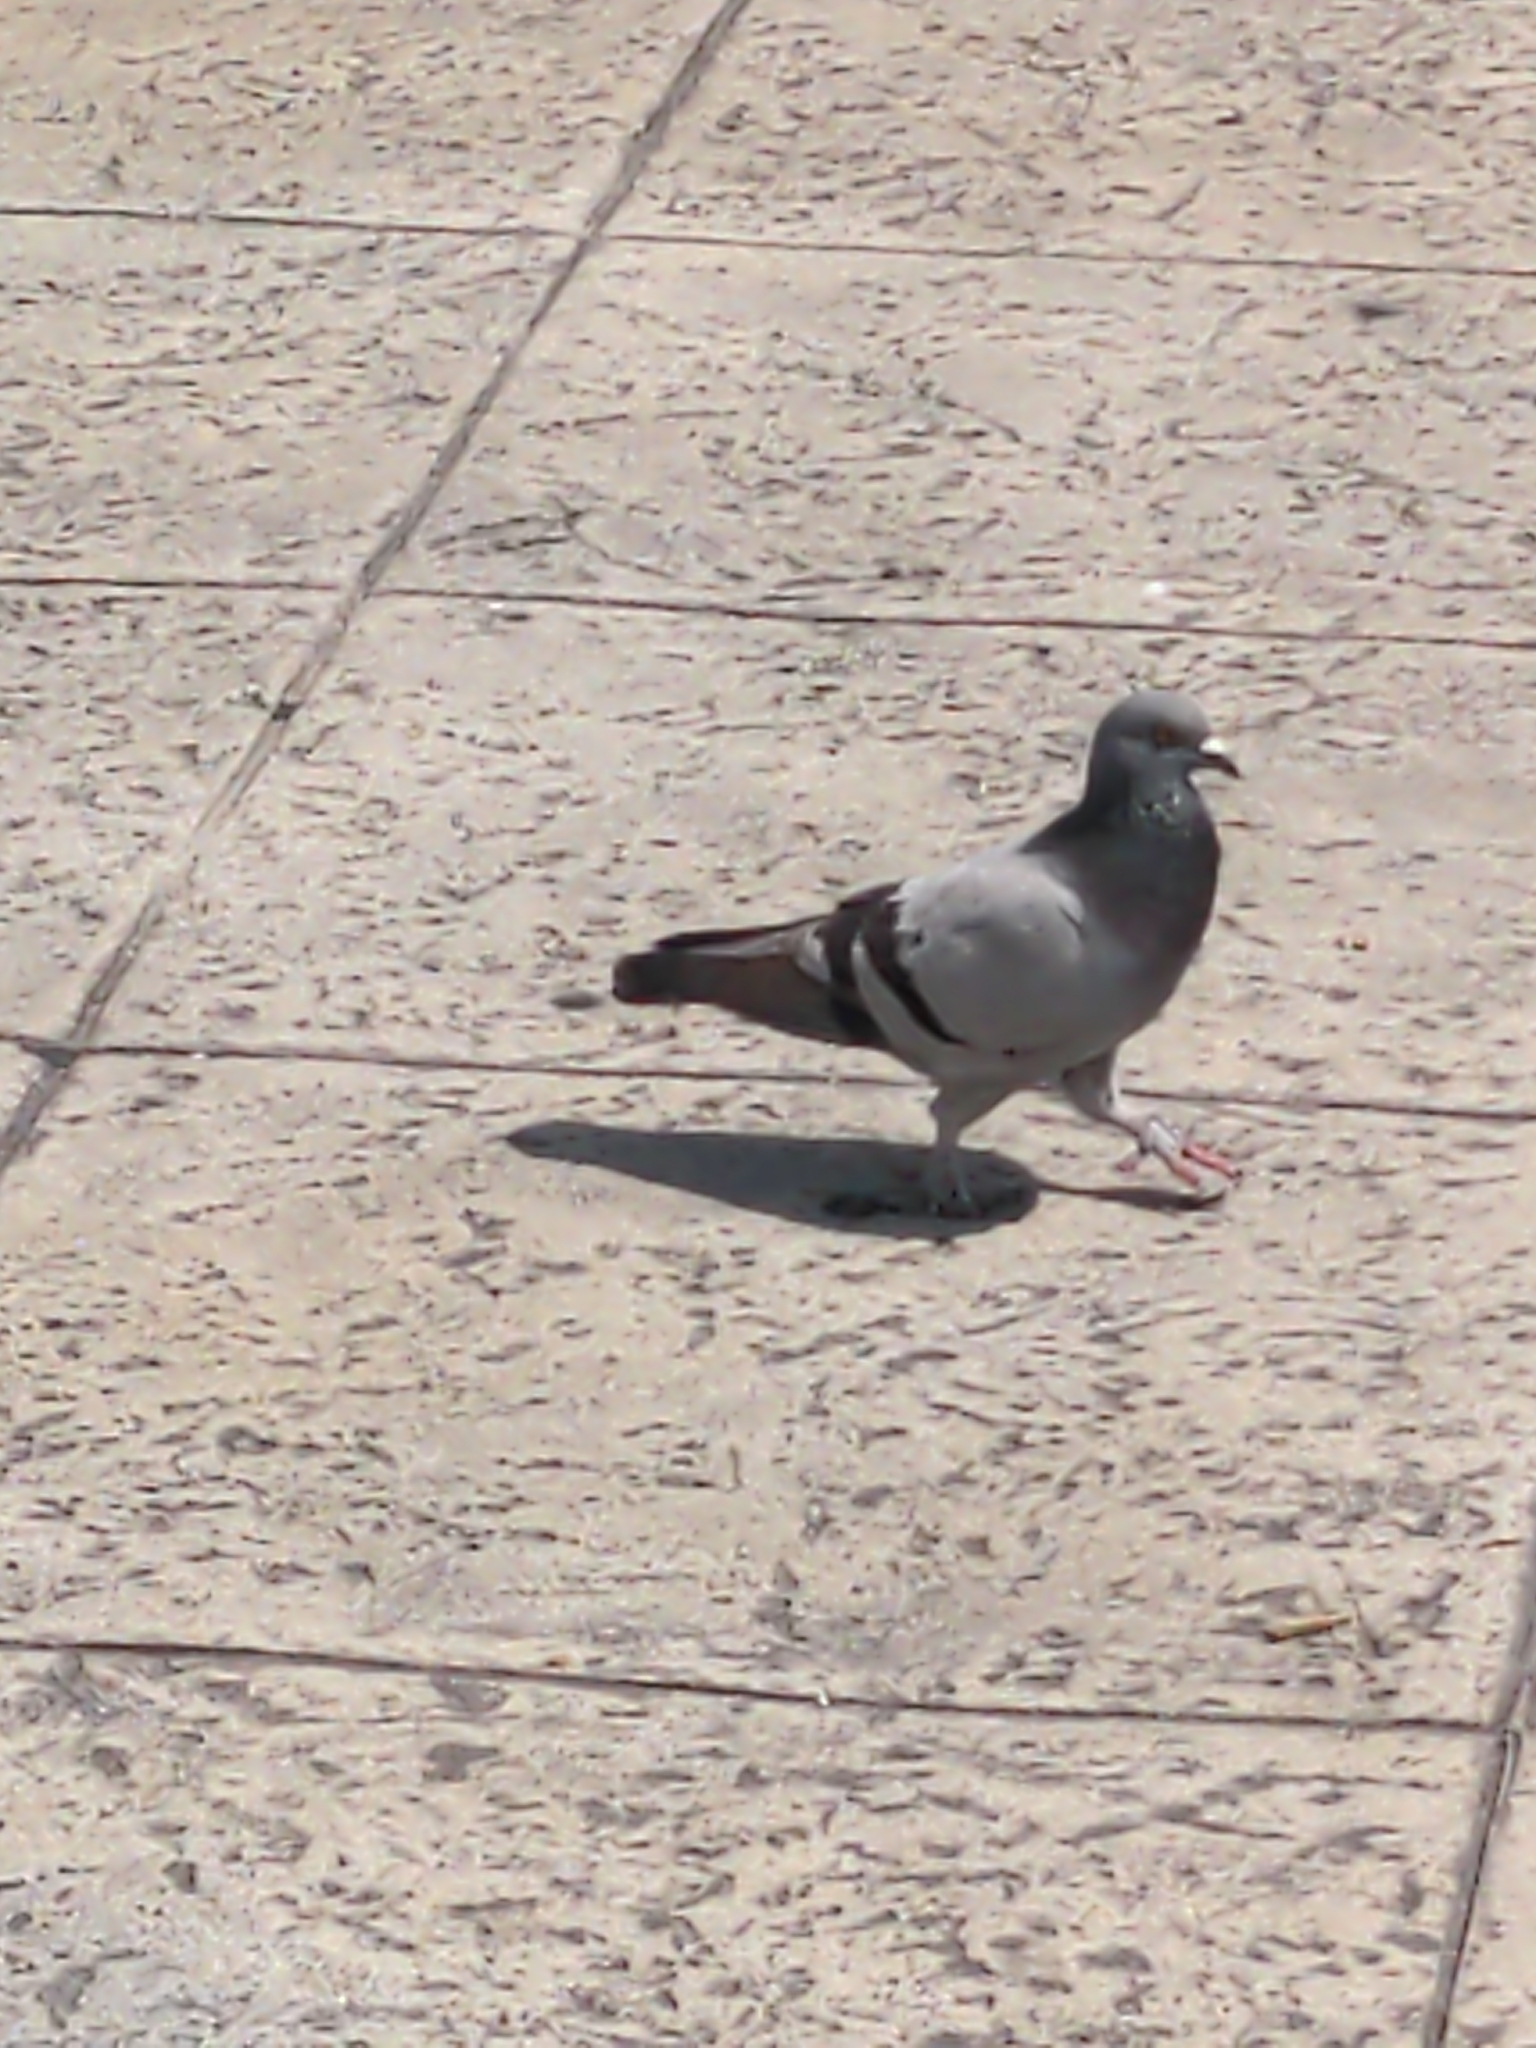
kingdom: Animalia
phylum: Chordata
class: Aves
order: Columbiformes
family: Columbidae
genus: Columba
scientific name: Columba livia
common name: Rock pigeon
